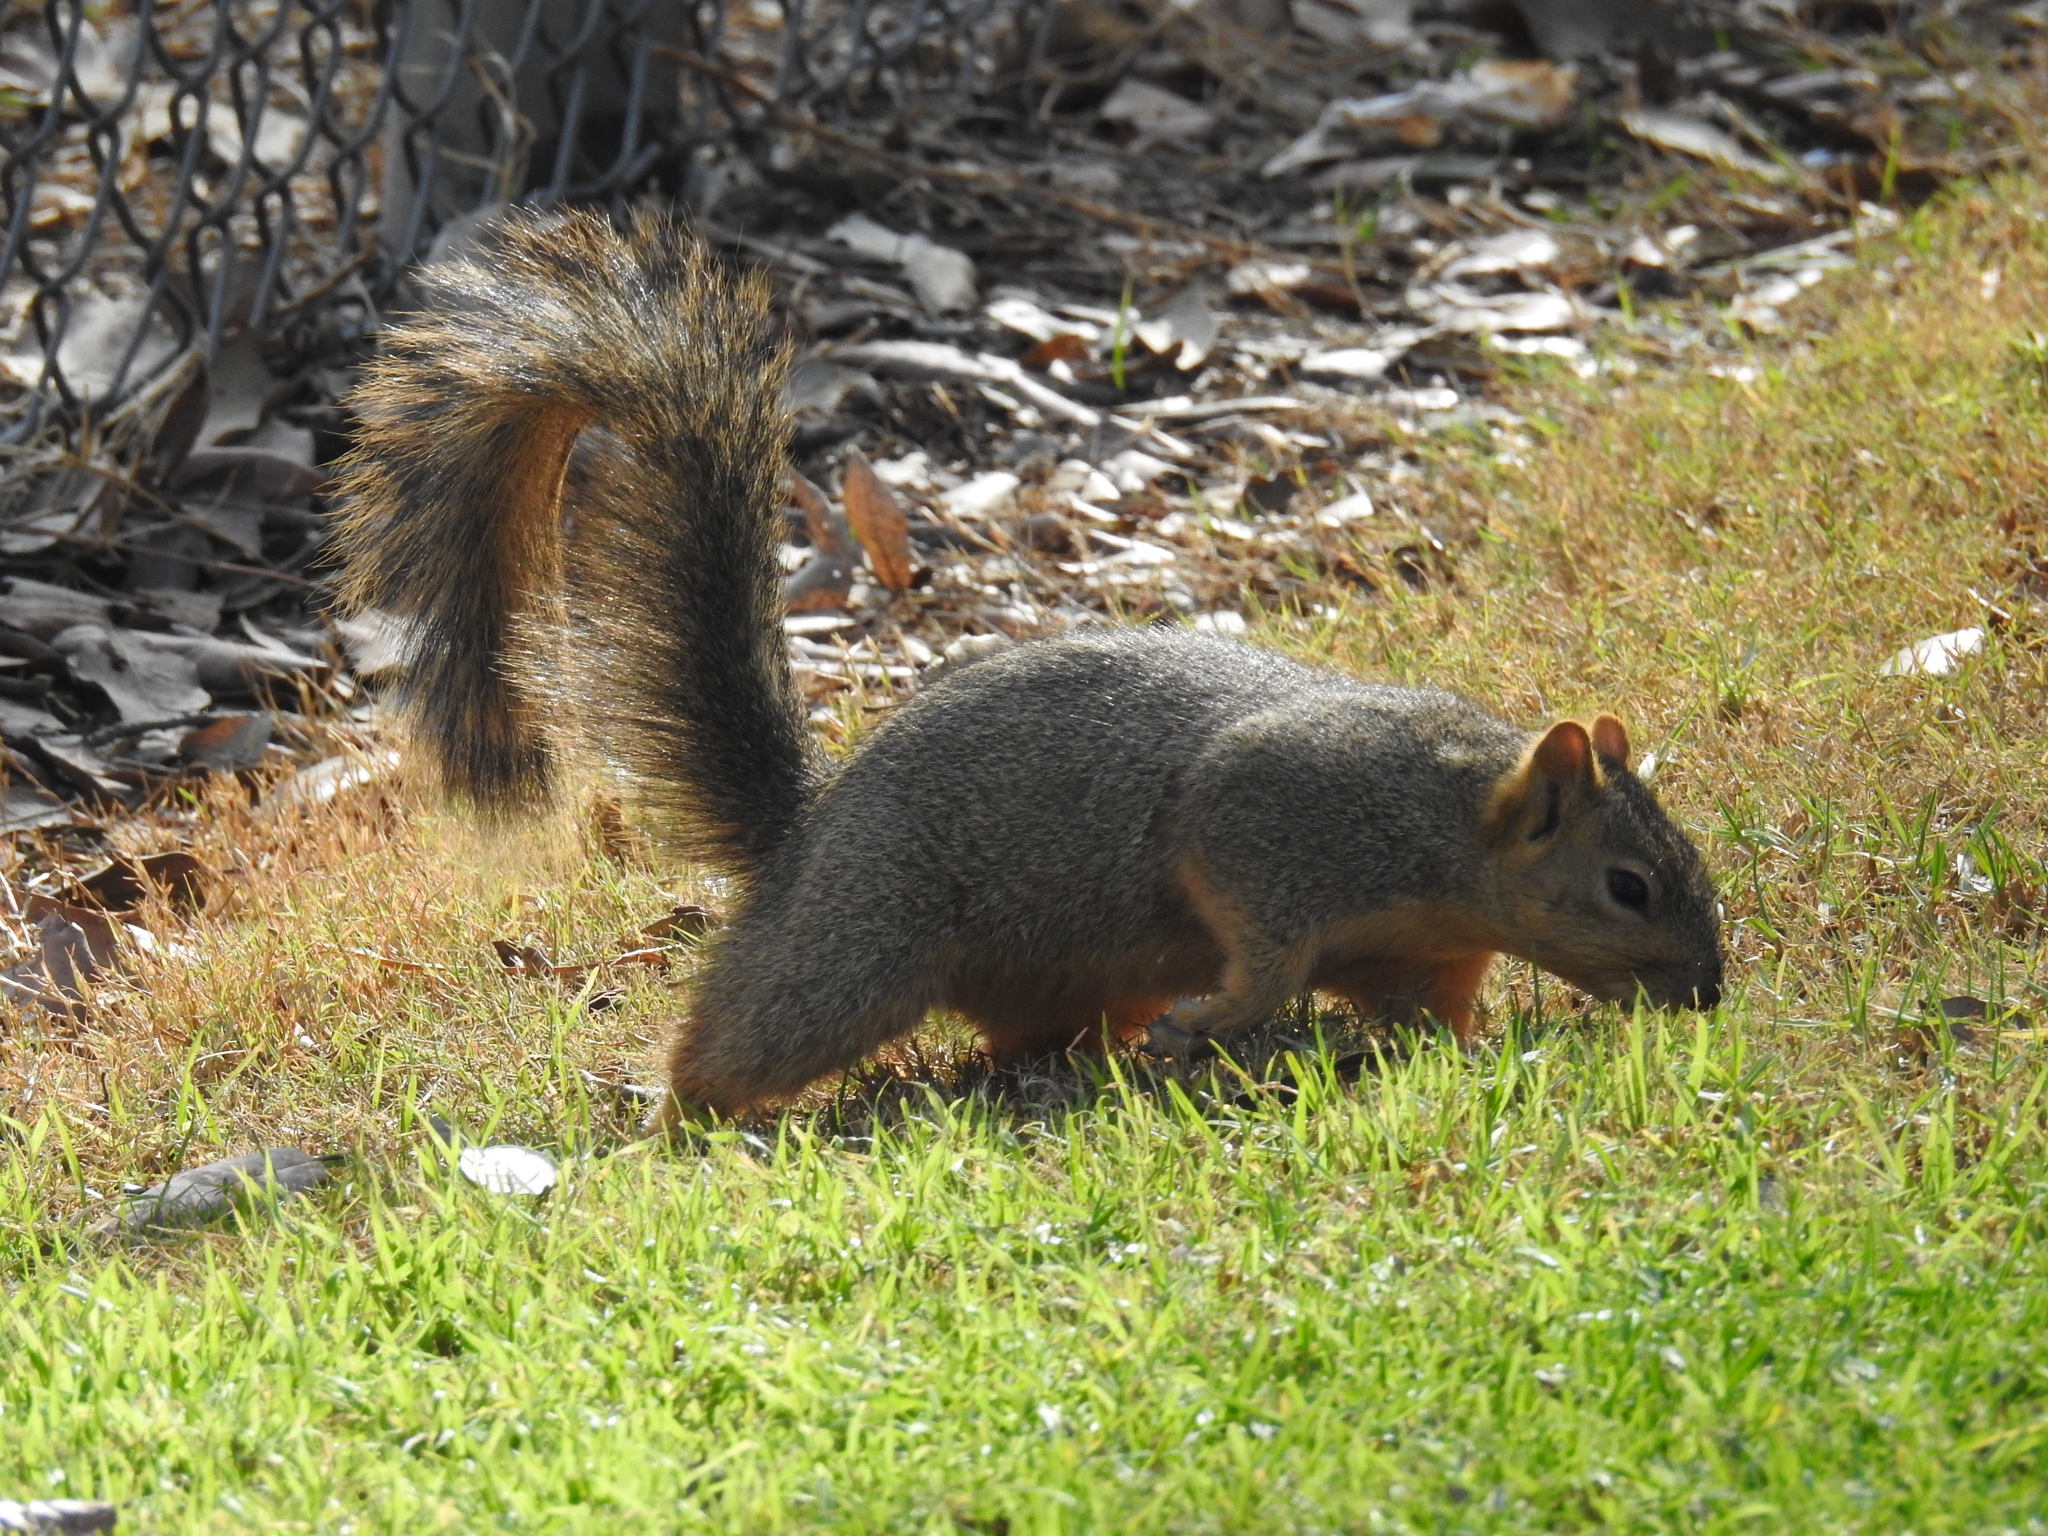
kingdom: Animalia
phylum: Chordata
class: Mammalia
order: Rodentia
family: Sciuridae
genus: Sciurus
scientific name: Sciurus niger
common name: Fox squirrel
